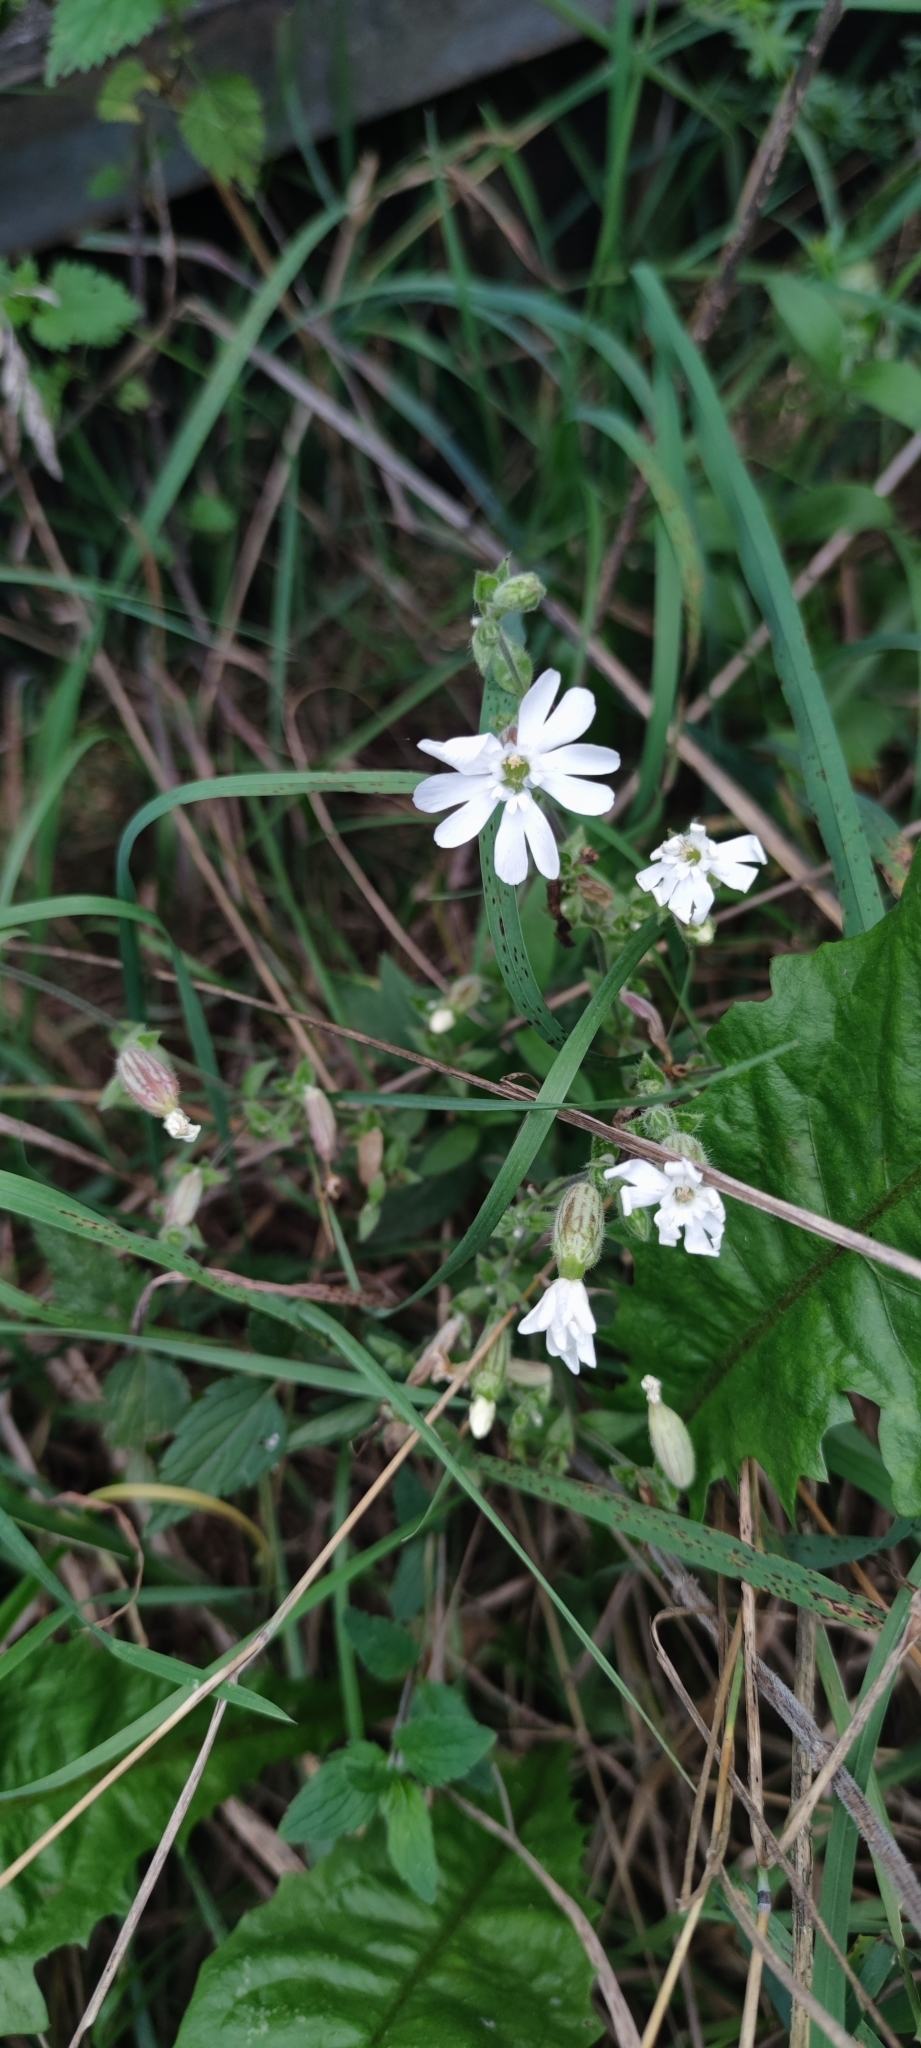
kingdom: Plantae
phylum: Tracheophyta
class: Magnoliopsida
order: Caryophyllales
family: Caryophyllaceae
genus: Silene
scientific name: Silene latifolia
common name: White campion
